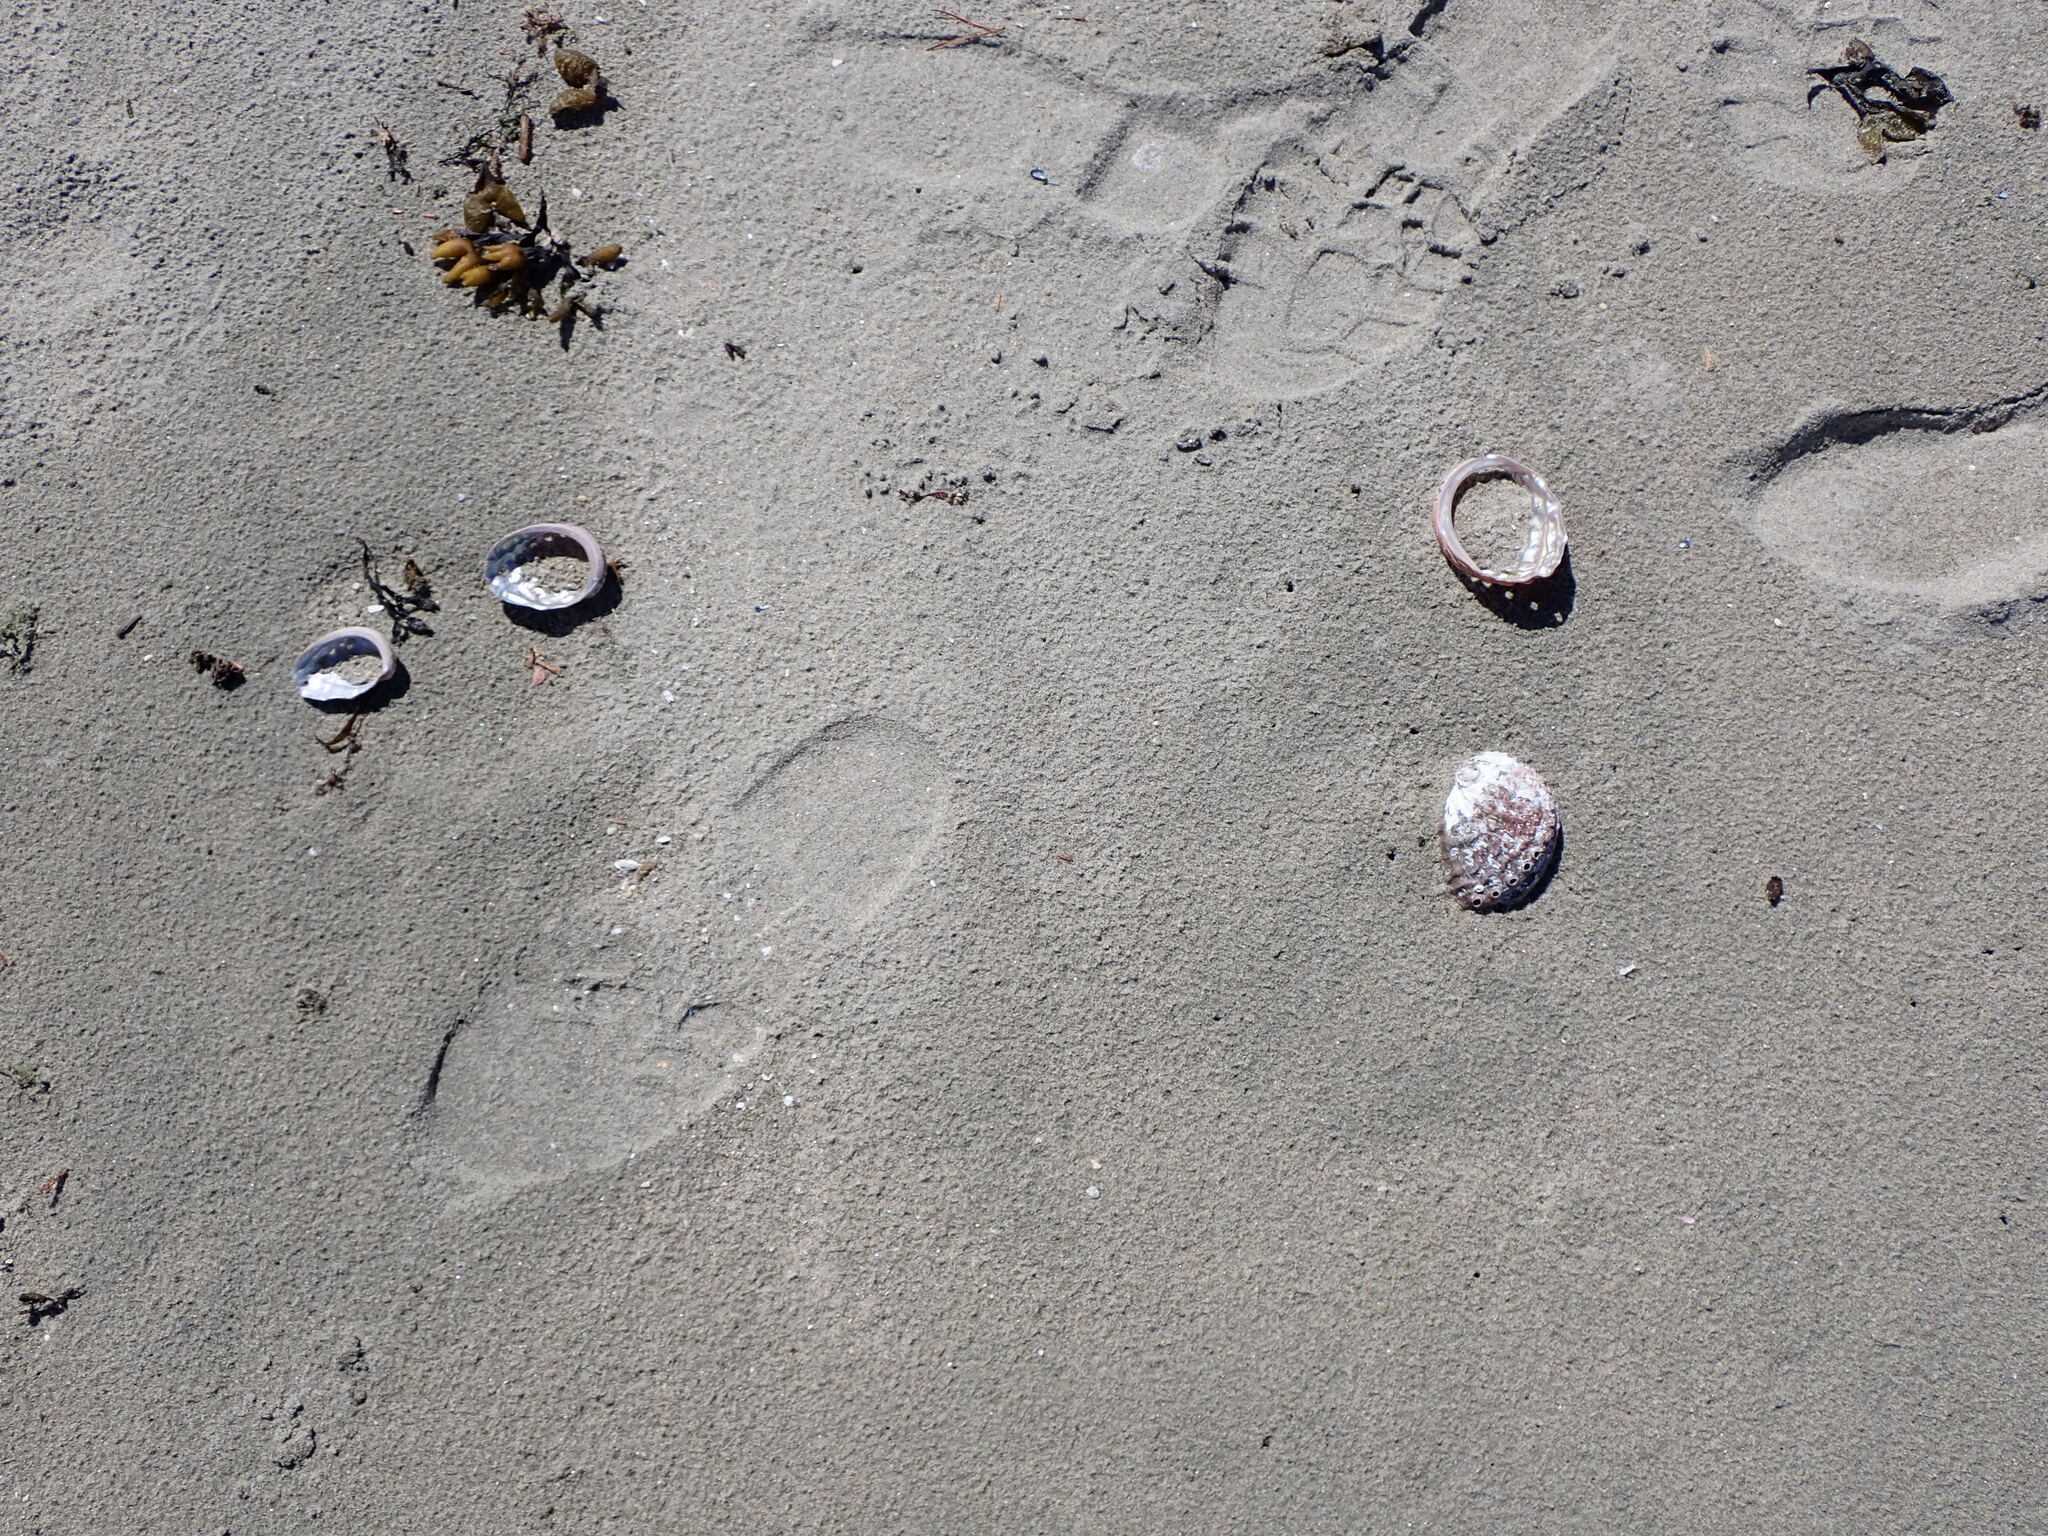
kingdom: Animalia
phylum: Mollusca
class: Gastropoda
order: Lepetellida
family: Haliotidae
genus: Haliotis
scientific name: Haliotis kamtschatkana
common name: Pinto abalone
